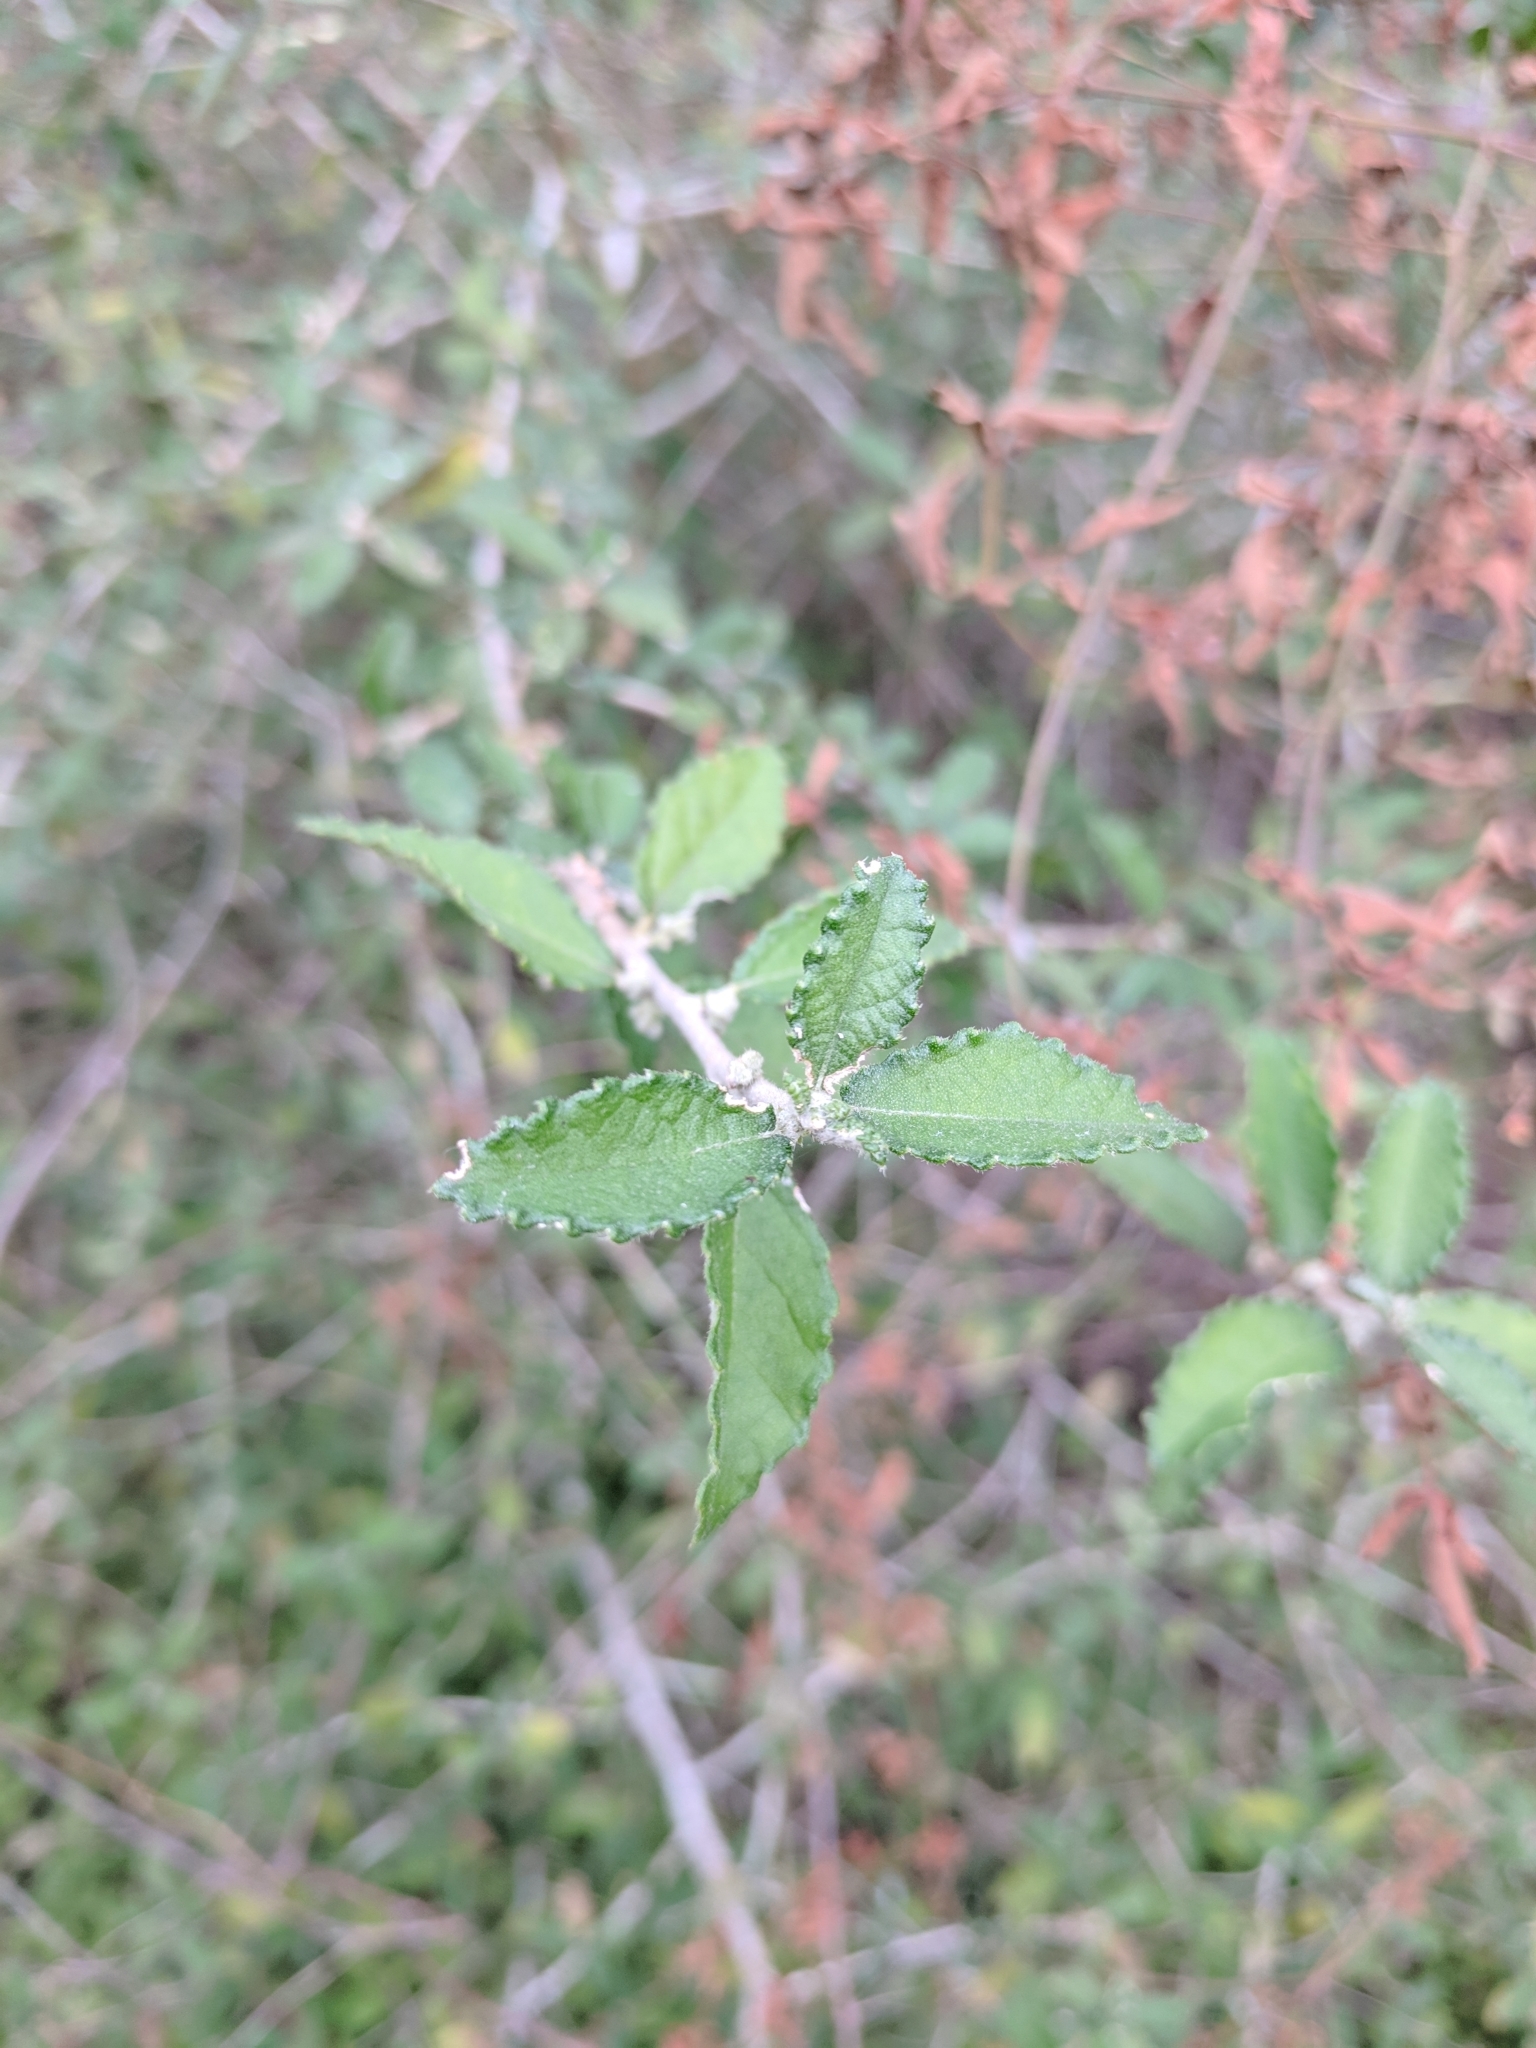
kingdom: Plantae
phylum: Tracheophyta
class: Magnoliopsida
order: Malpighiales
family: Euphorbiaceae
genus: Bernardia
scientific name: Bernardia myricifolia
